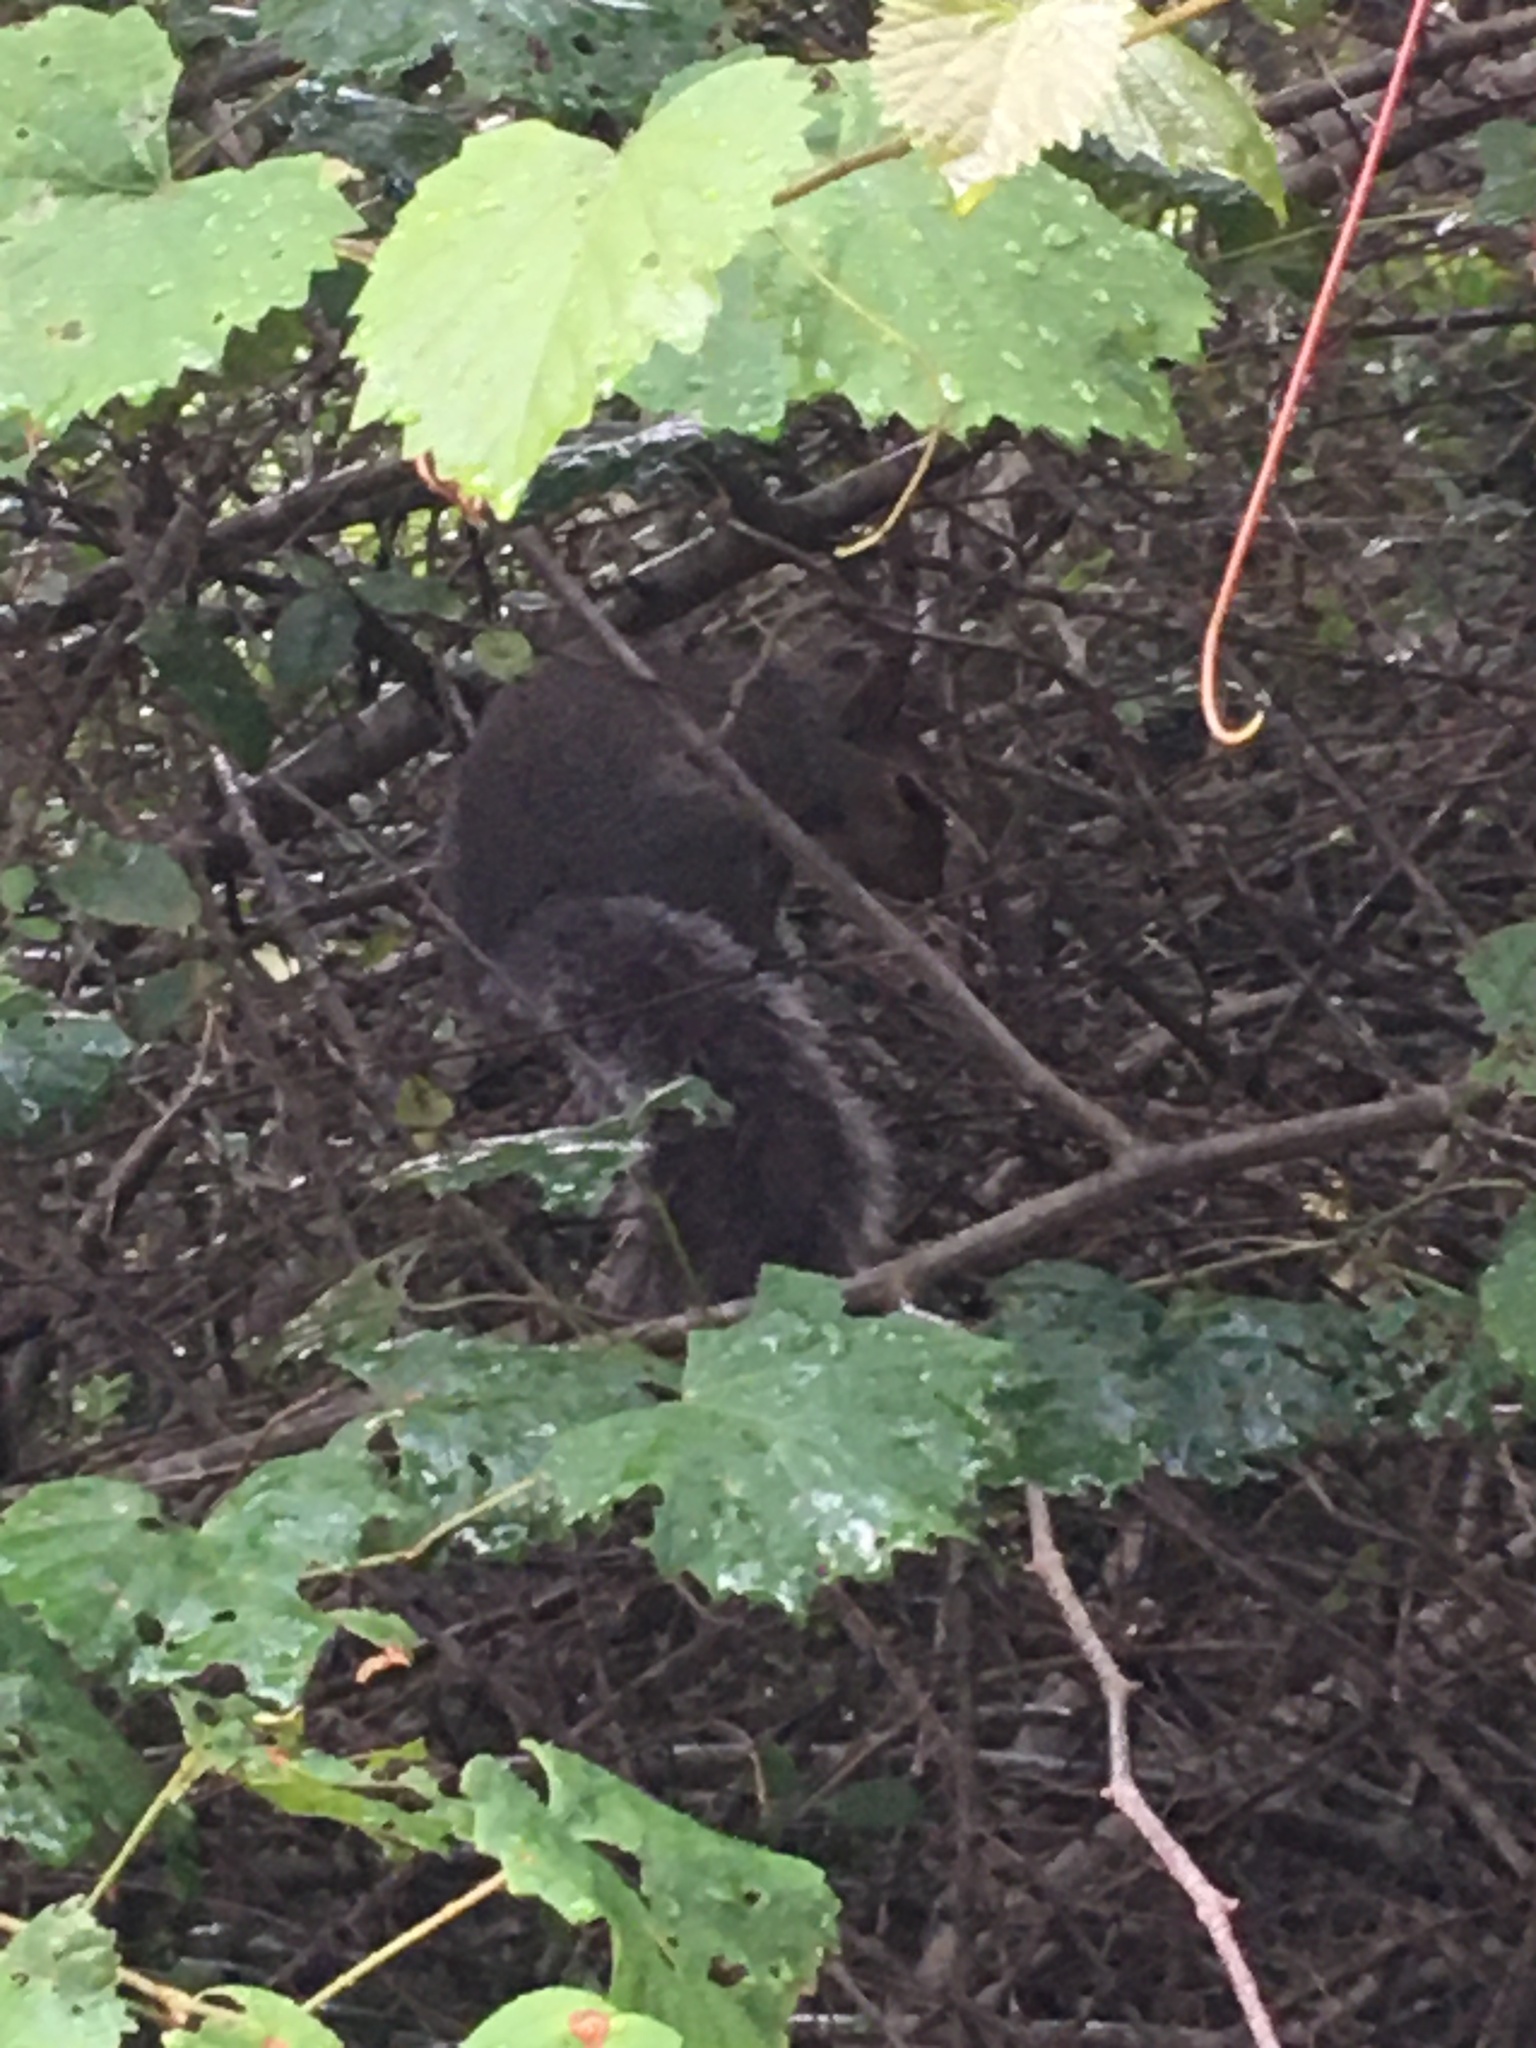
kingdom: Animalia
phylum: Chordata
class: Mammalia
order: Rodentia
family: Sciuridae
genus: Sciurus
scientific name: Sciurus carolinensis
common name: Eastern gray squirrel
